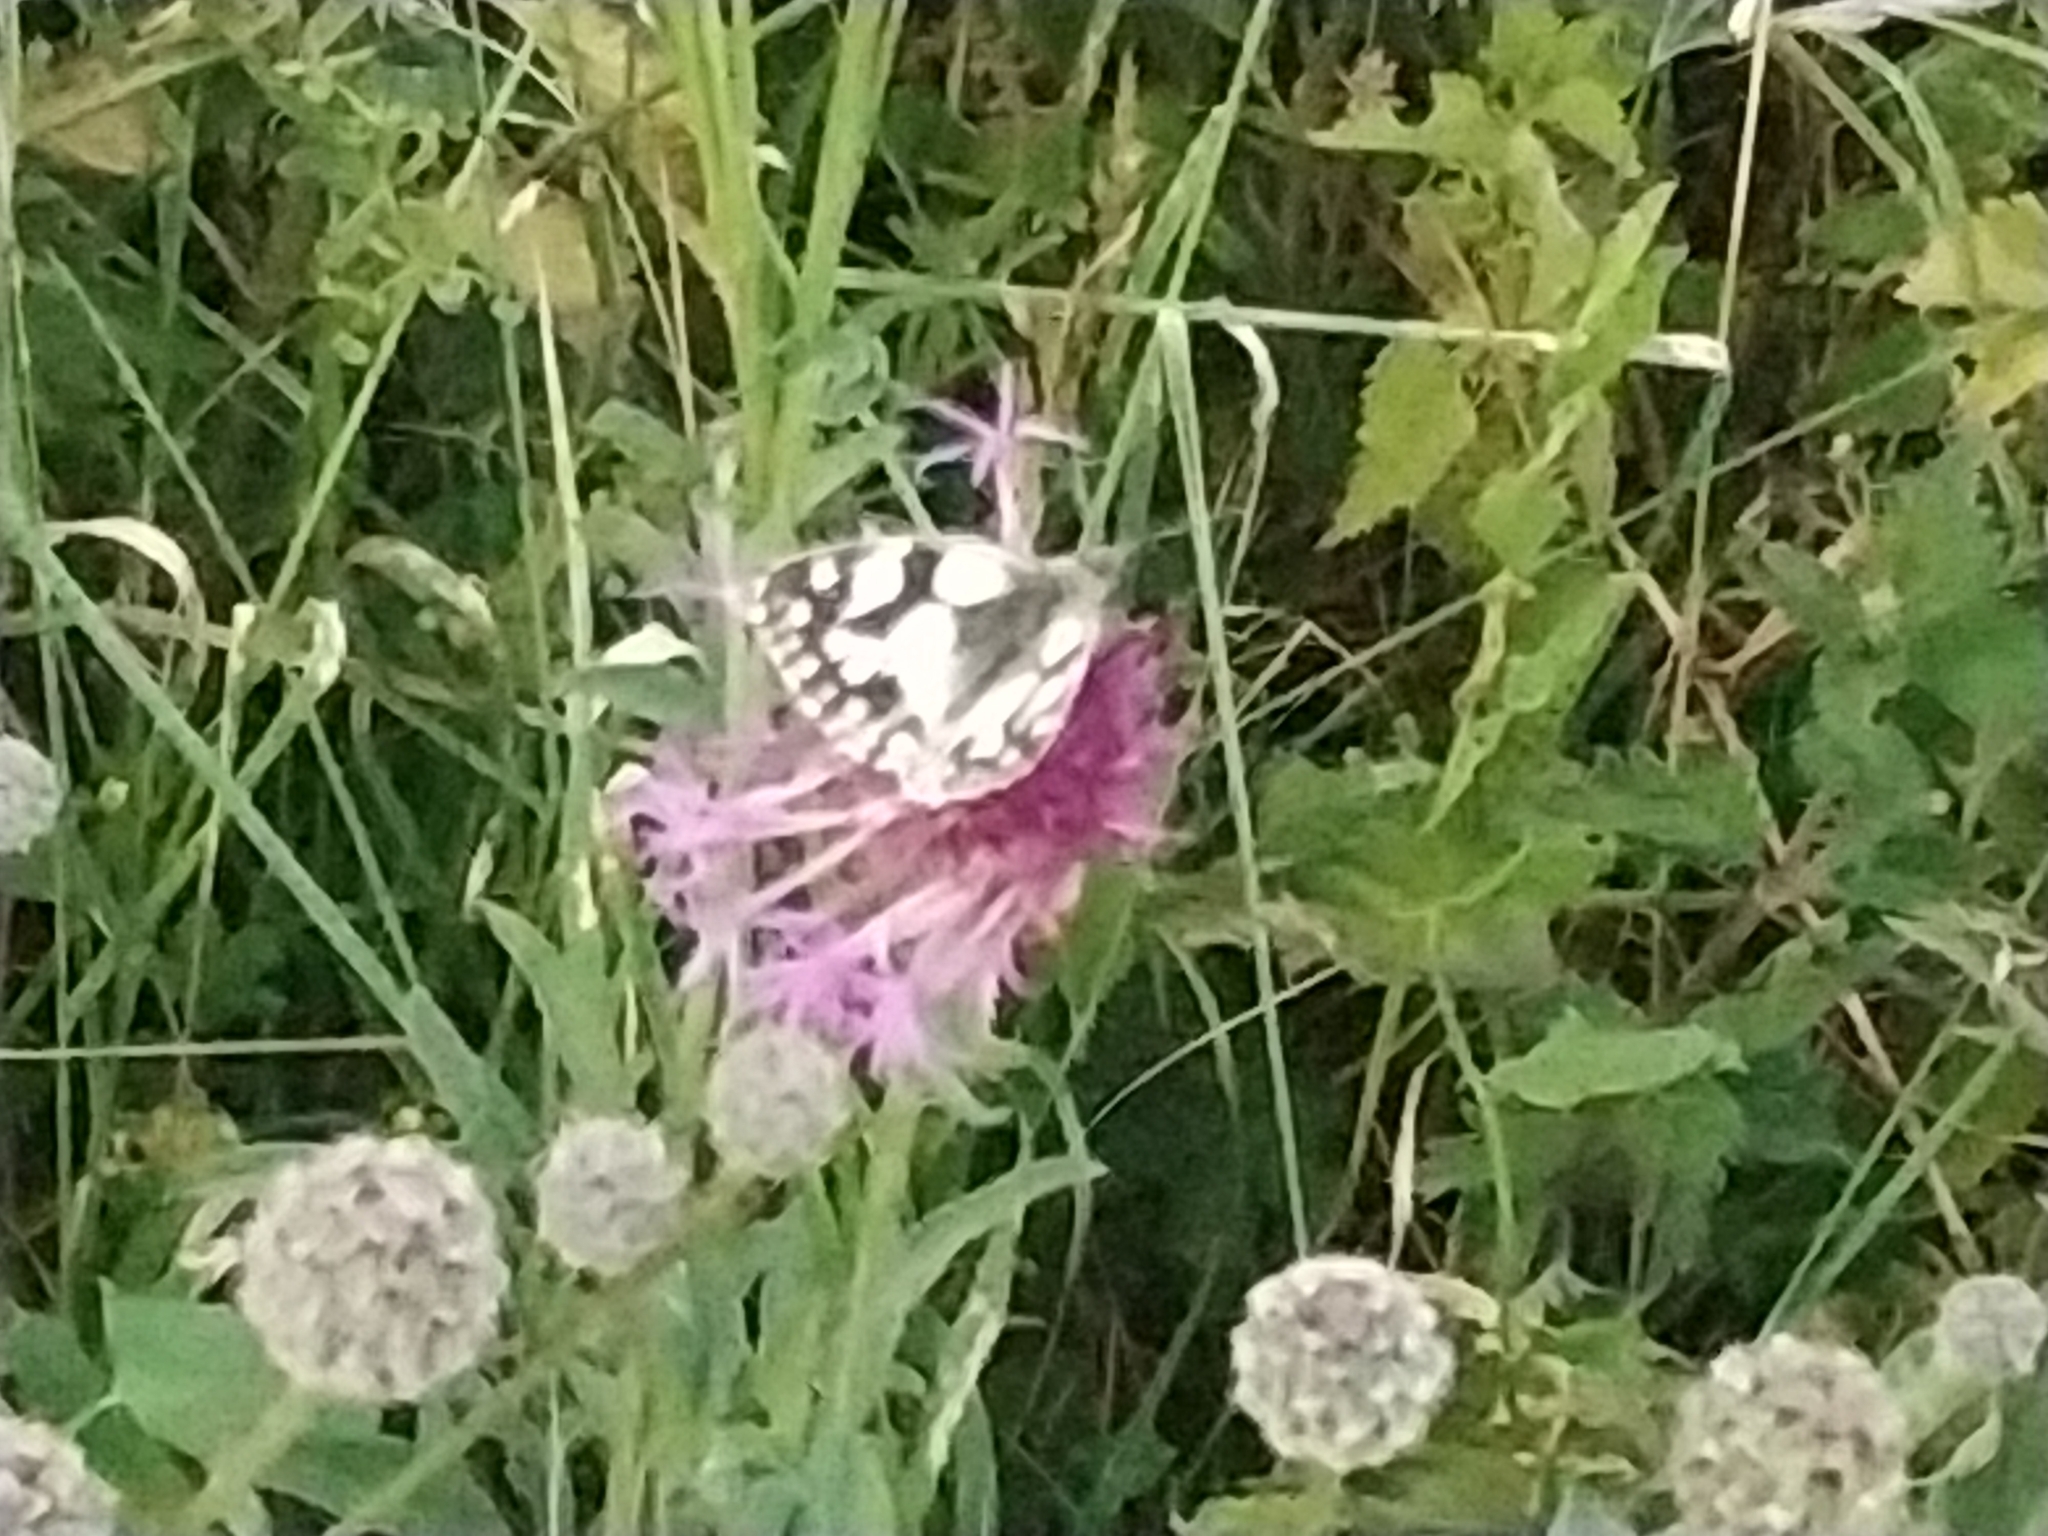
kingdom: Animalia
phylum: Arthropoda
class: Insecta
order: Lepidoptera
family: Nymphalidae
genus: Melanargia
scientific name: Melanargia galathea
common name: Marbled white
